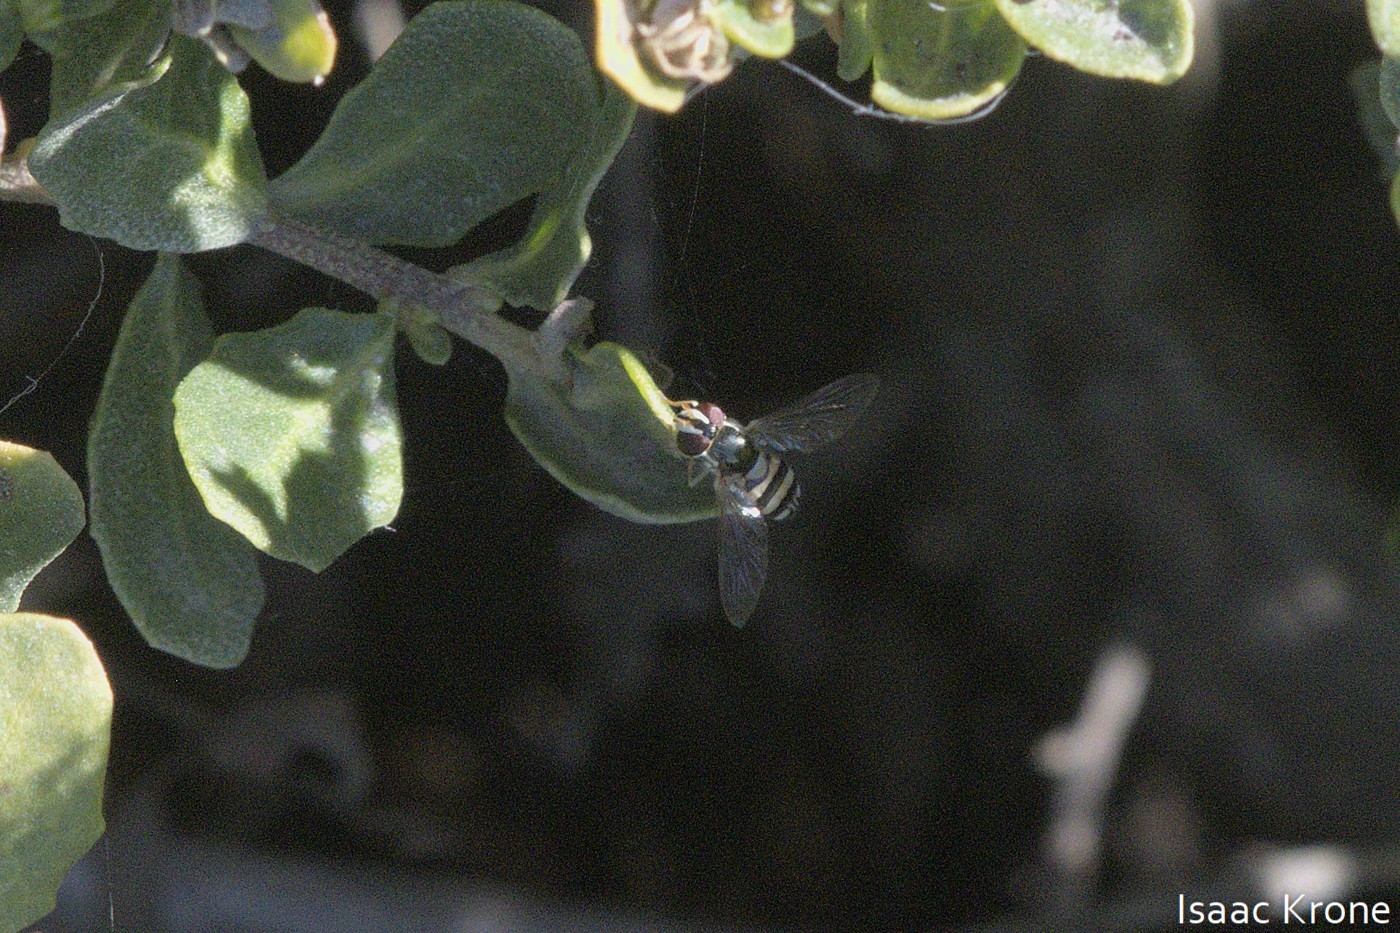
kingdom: Animalia
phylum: Arthropoda
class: Insecta
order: Diptera
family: Syrphidae
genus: Allograpta
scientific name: Allograpta exotica
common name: Syrphid fly
